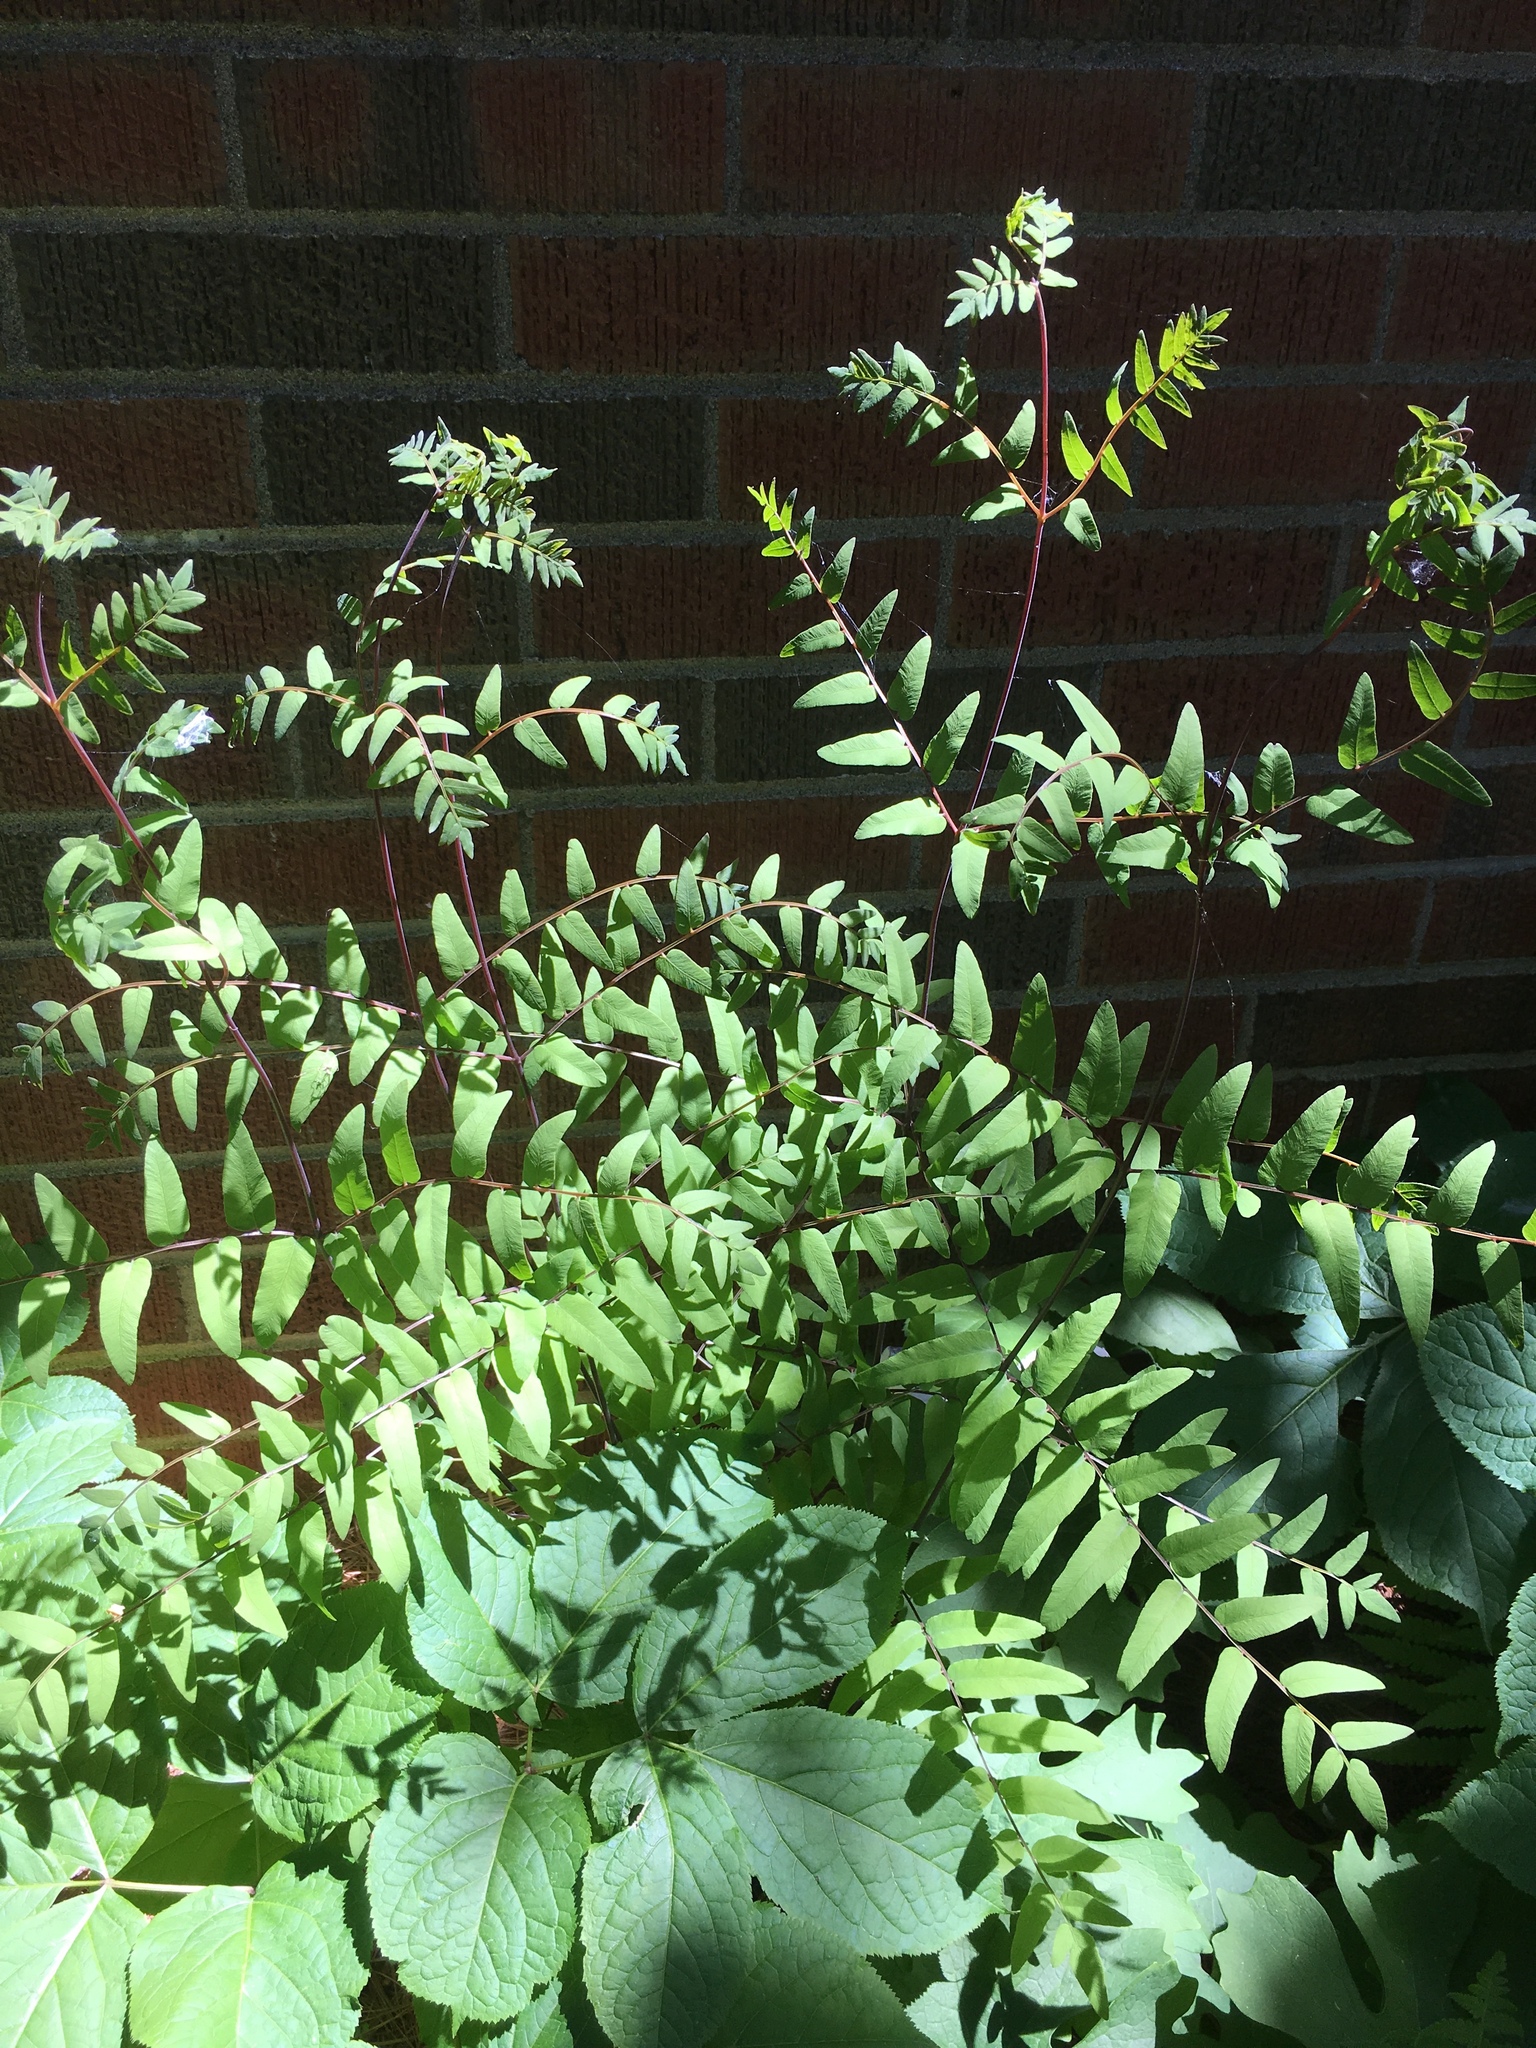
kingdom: Plantae
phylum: Tracheophyta
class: Polypodiopsida
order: Osmundales
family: Osmundaceae
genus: Osmunda
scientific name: Osmunda spectabilis
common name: American royal fern
